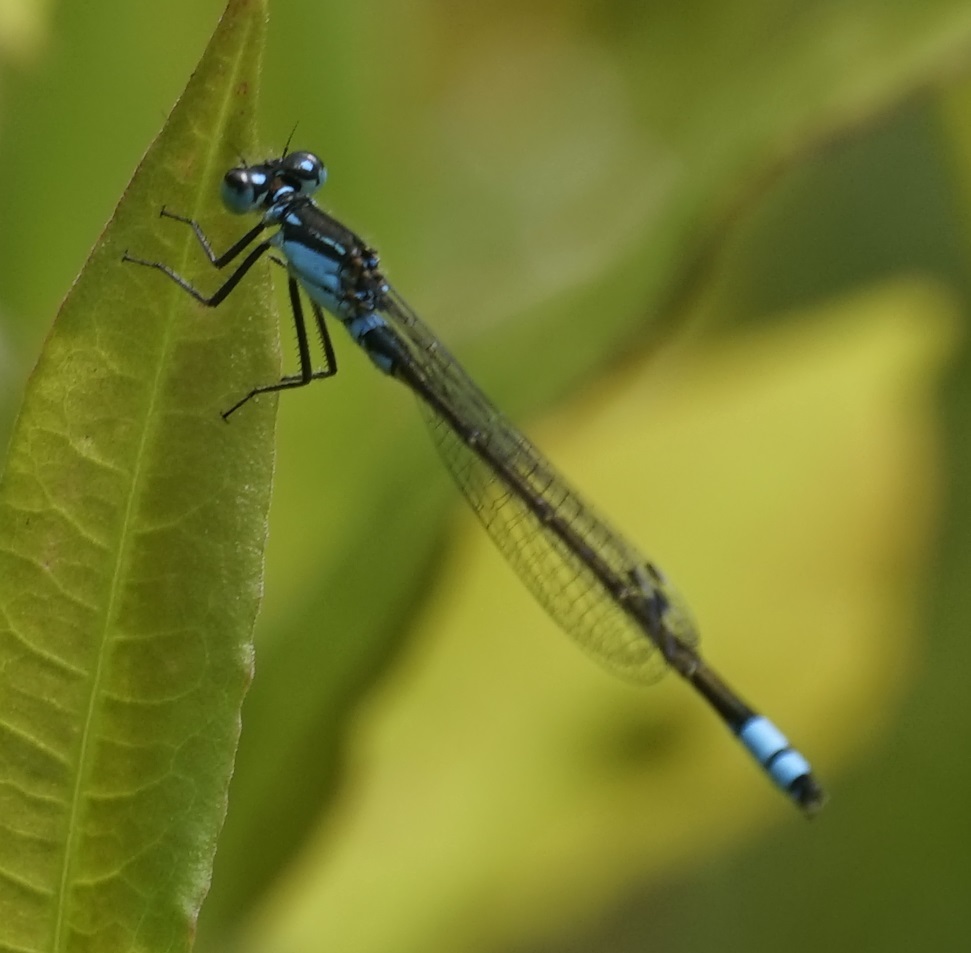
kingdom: Animalia
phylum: Arthropoda
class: Insecta
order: Odonata
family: Coenagrionidae
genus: Ischnura
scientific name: Ischnura heterosticta
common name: Common bluetail
